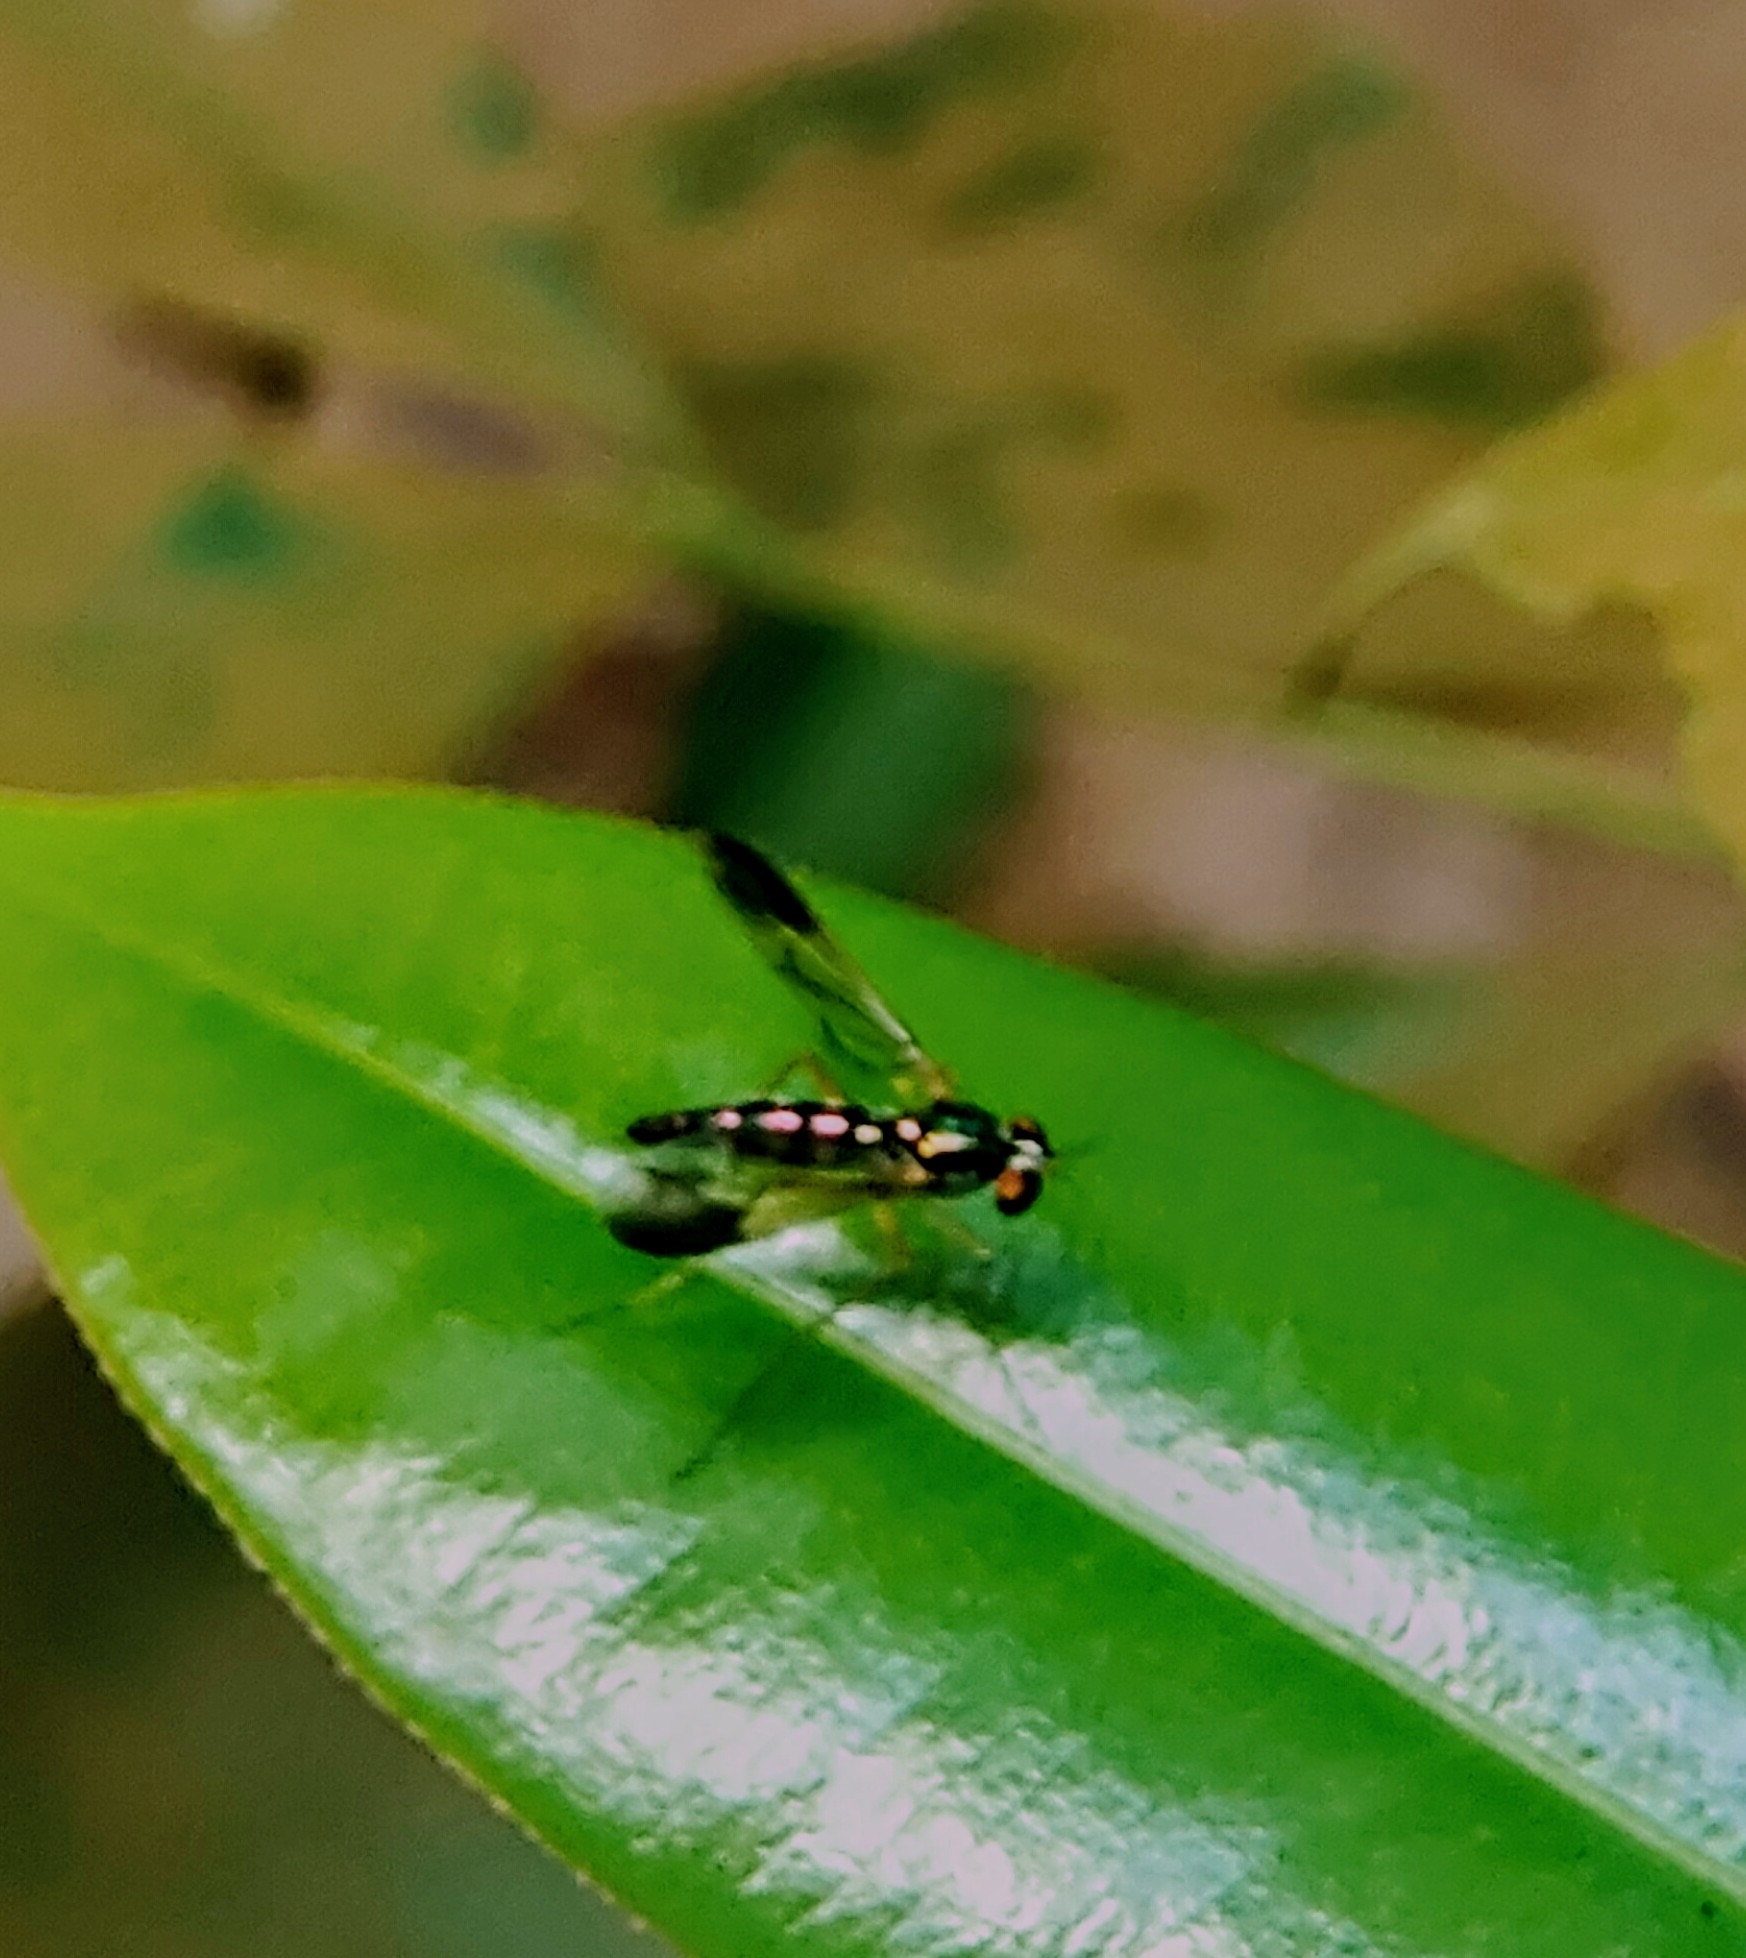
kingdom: Animalia
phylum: Arthropoda
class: Insecta
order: Diptera
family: Dolichopodidae
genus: Plagiozopelma
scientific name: Plagiozopelma lichtwardti
